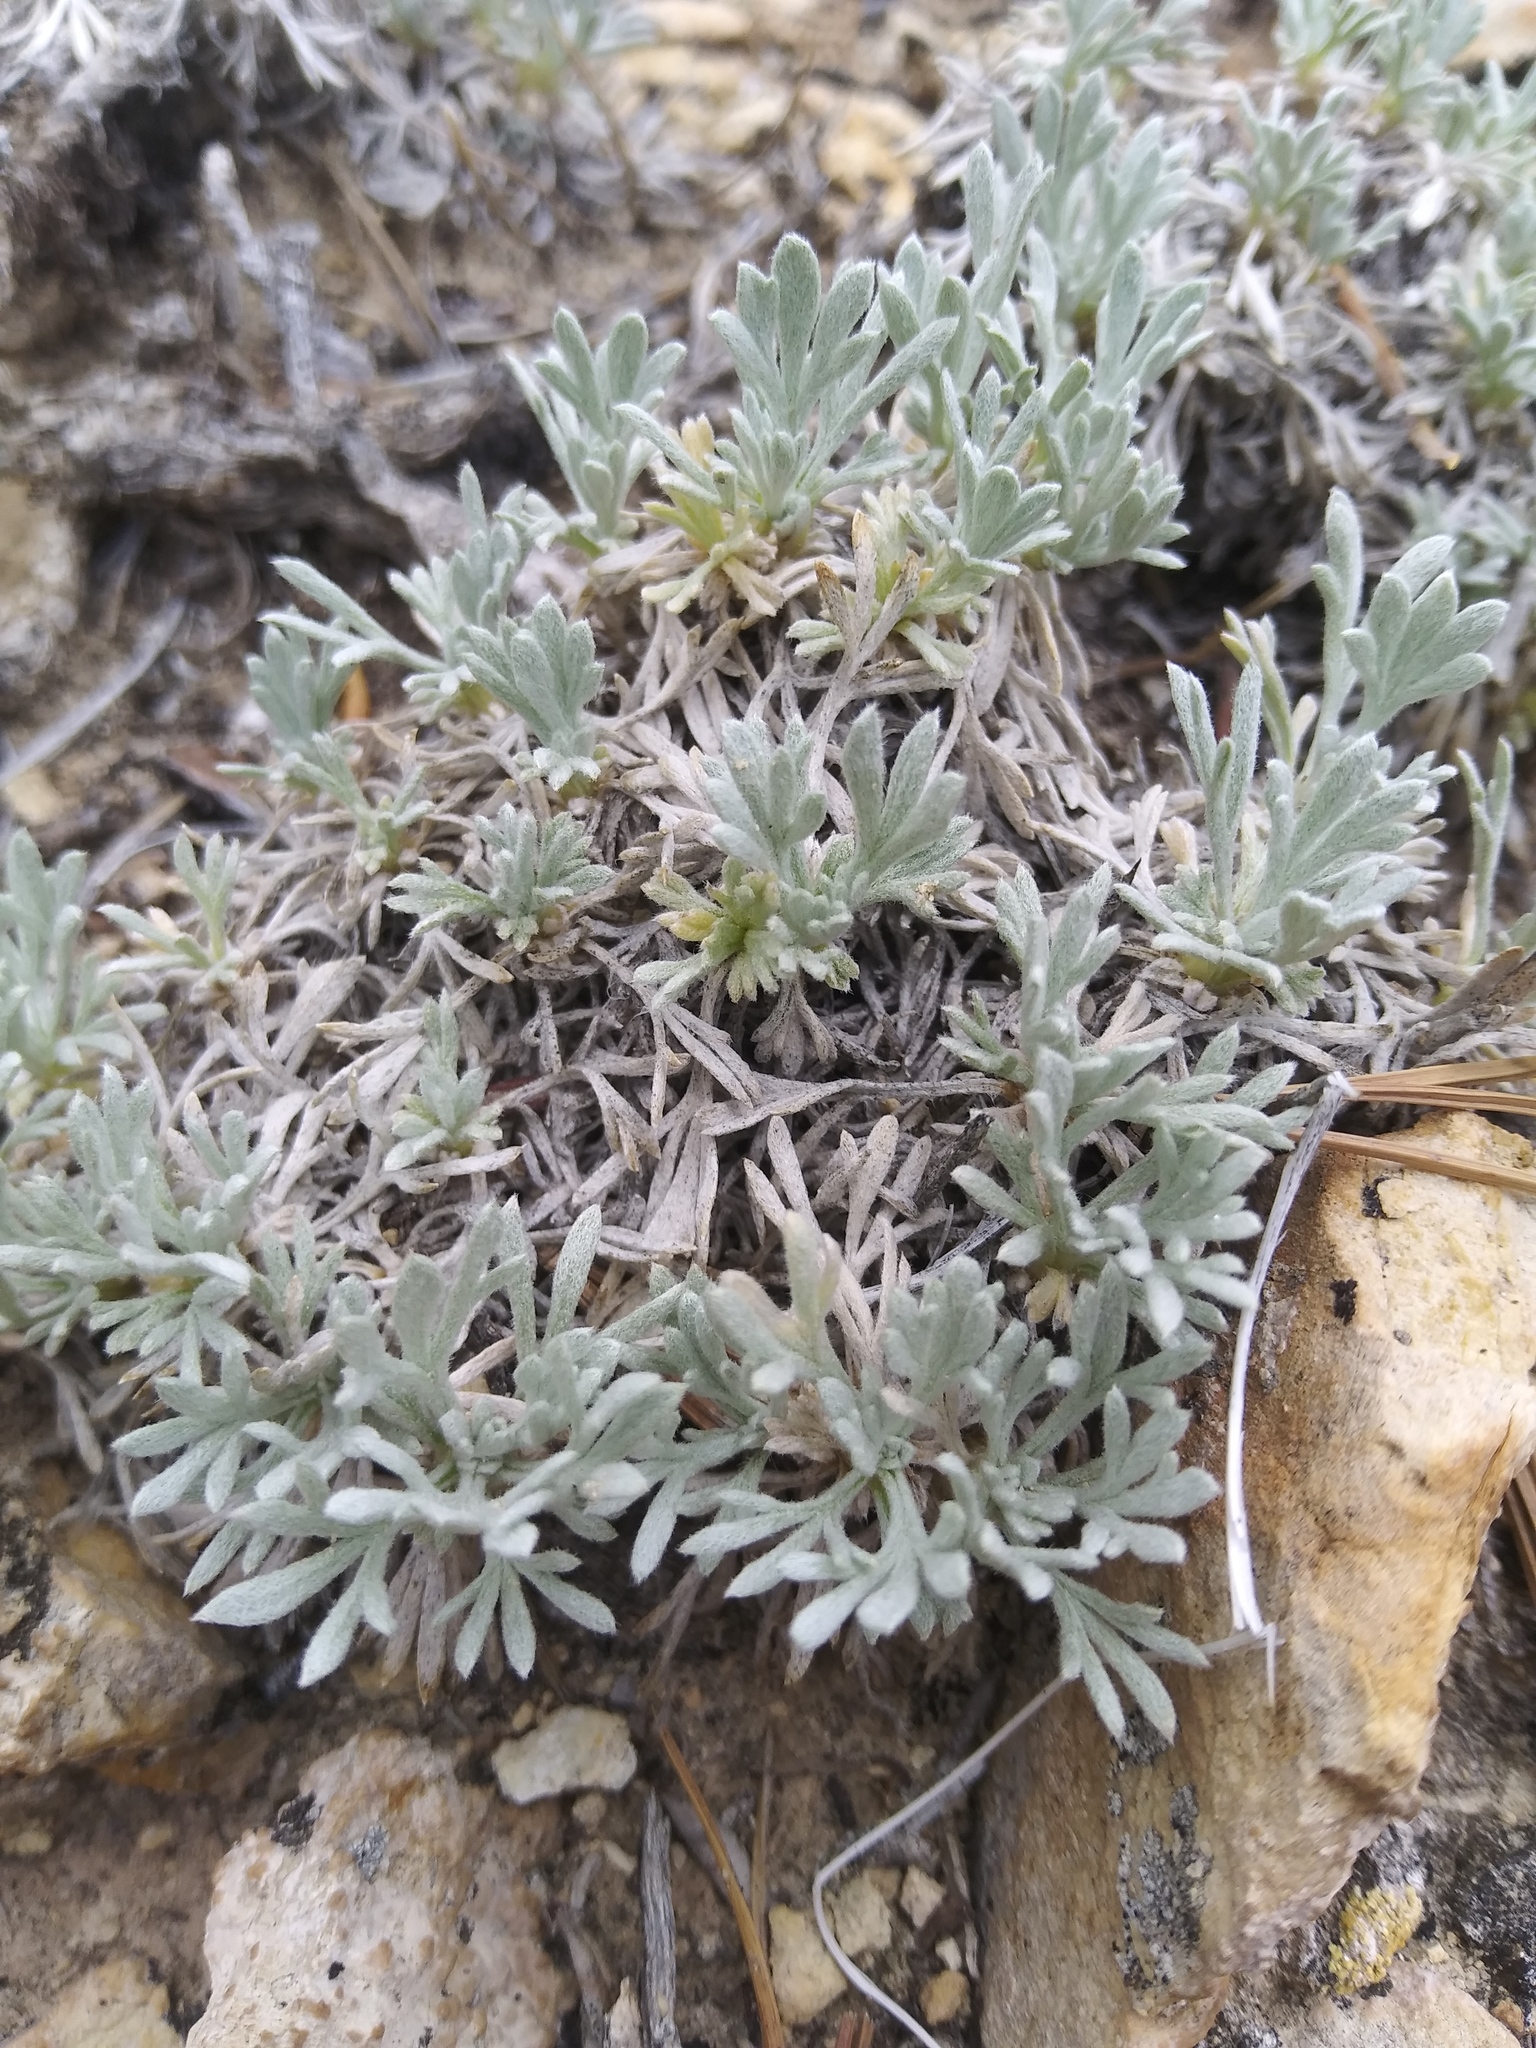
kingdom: Plantae
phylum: Tracheophyta
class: Magnoliopsida
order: Asterales
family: Asteraceae
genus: Artemisia
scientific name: Artemisia capitata
